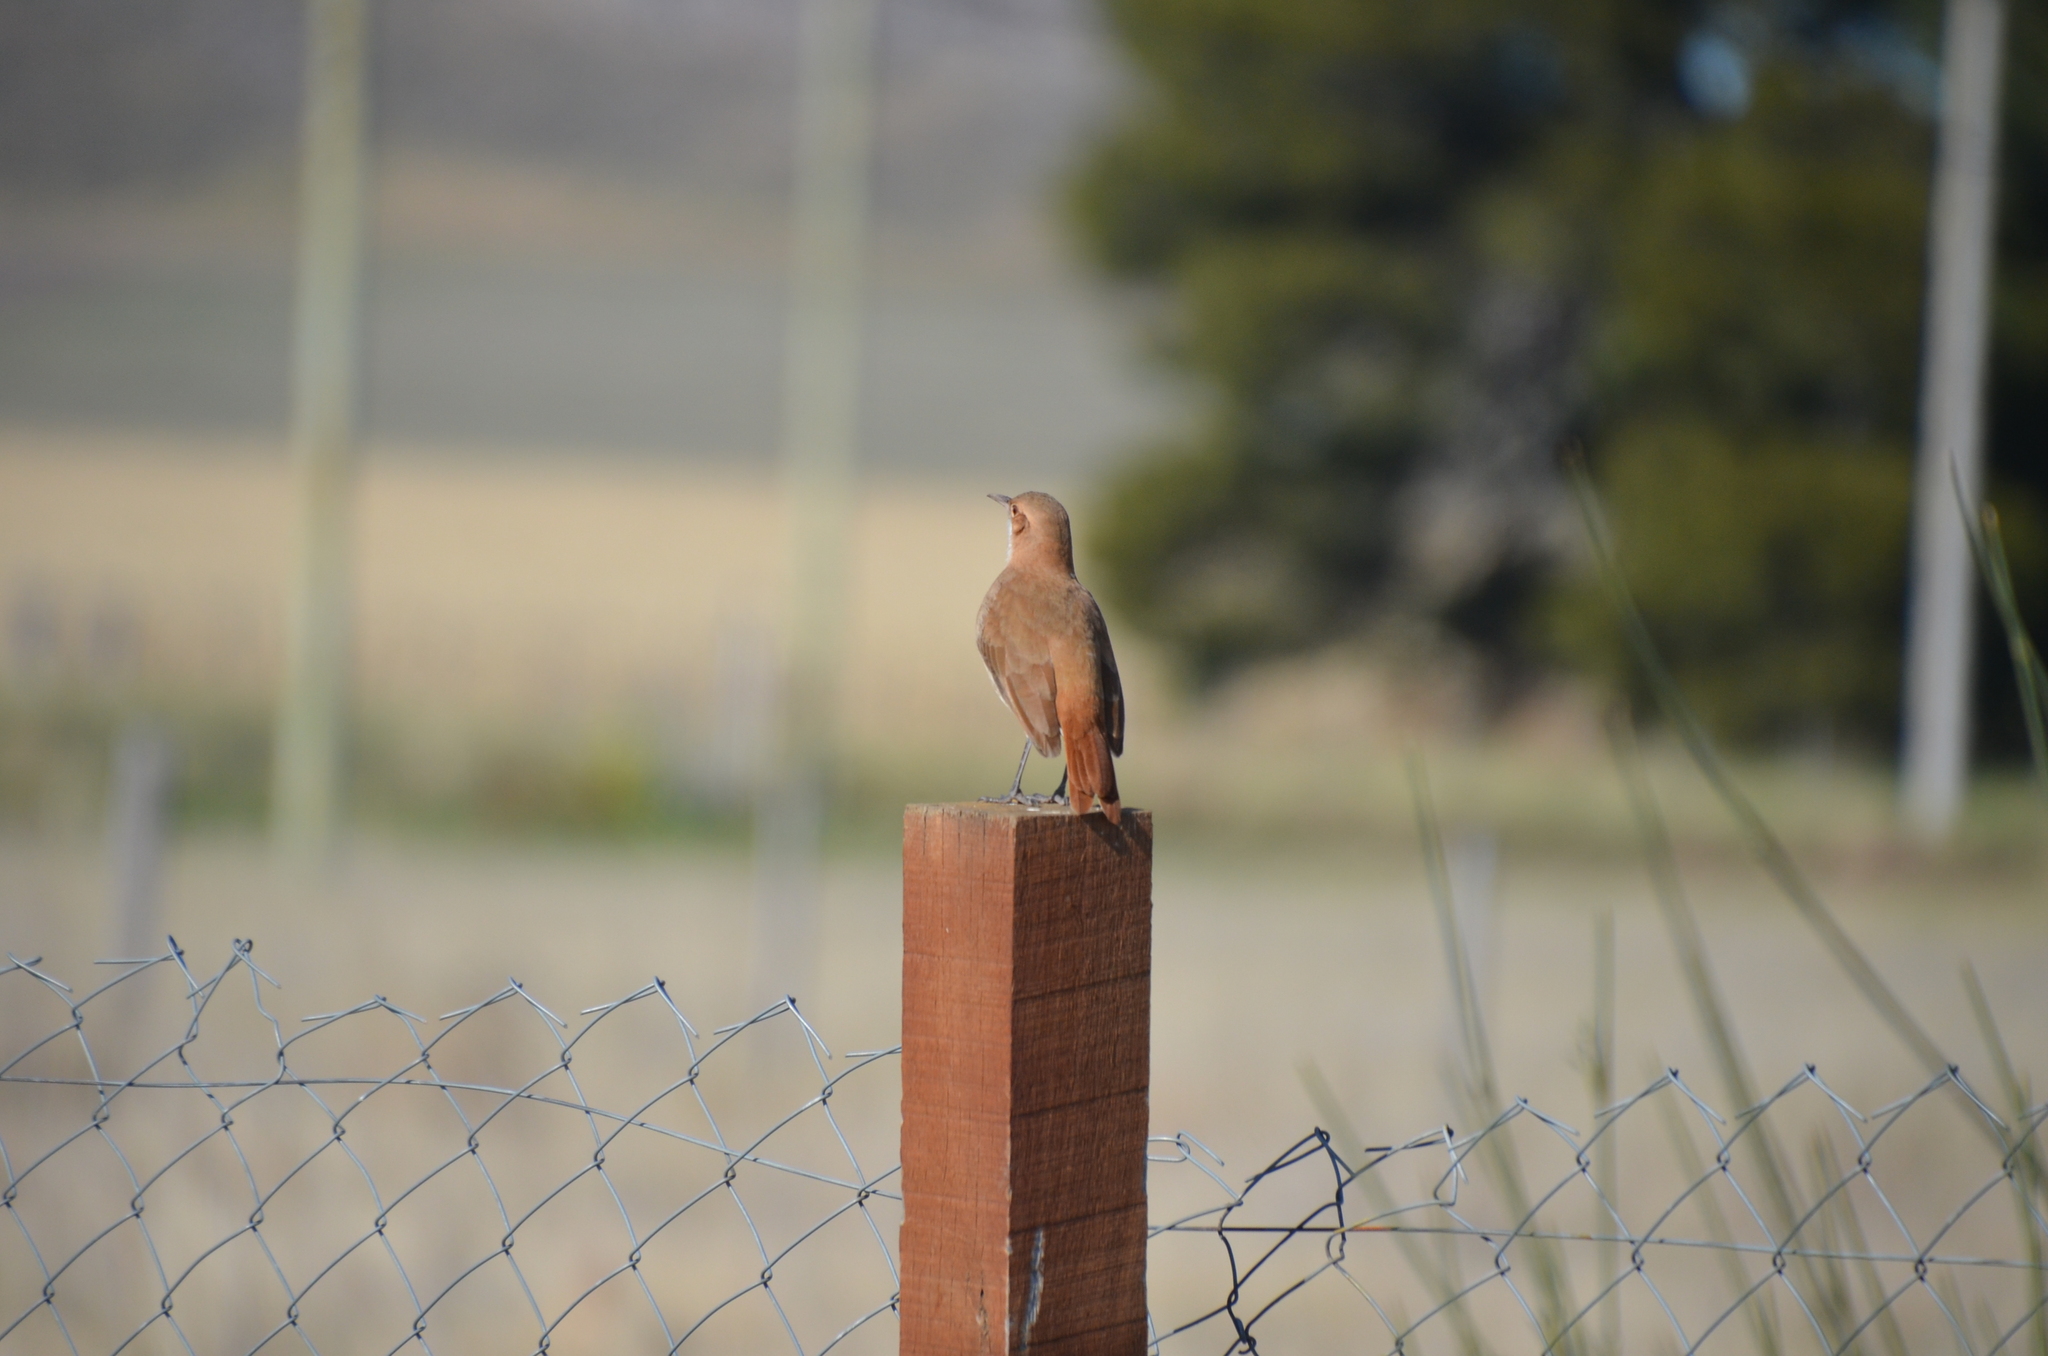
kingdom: Animalia
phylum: Chordata
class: Aves
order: Passeriformes
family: Furnariidae
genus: Furnarius
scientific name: Furnarius rufus
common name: Rufous hornero
